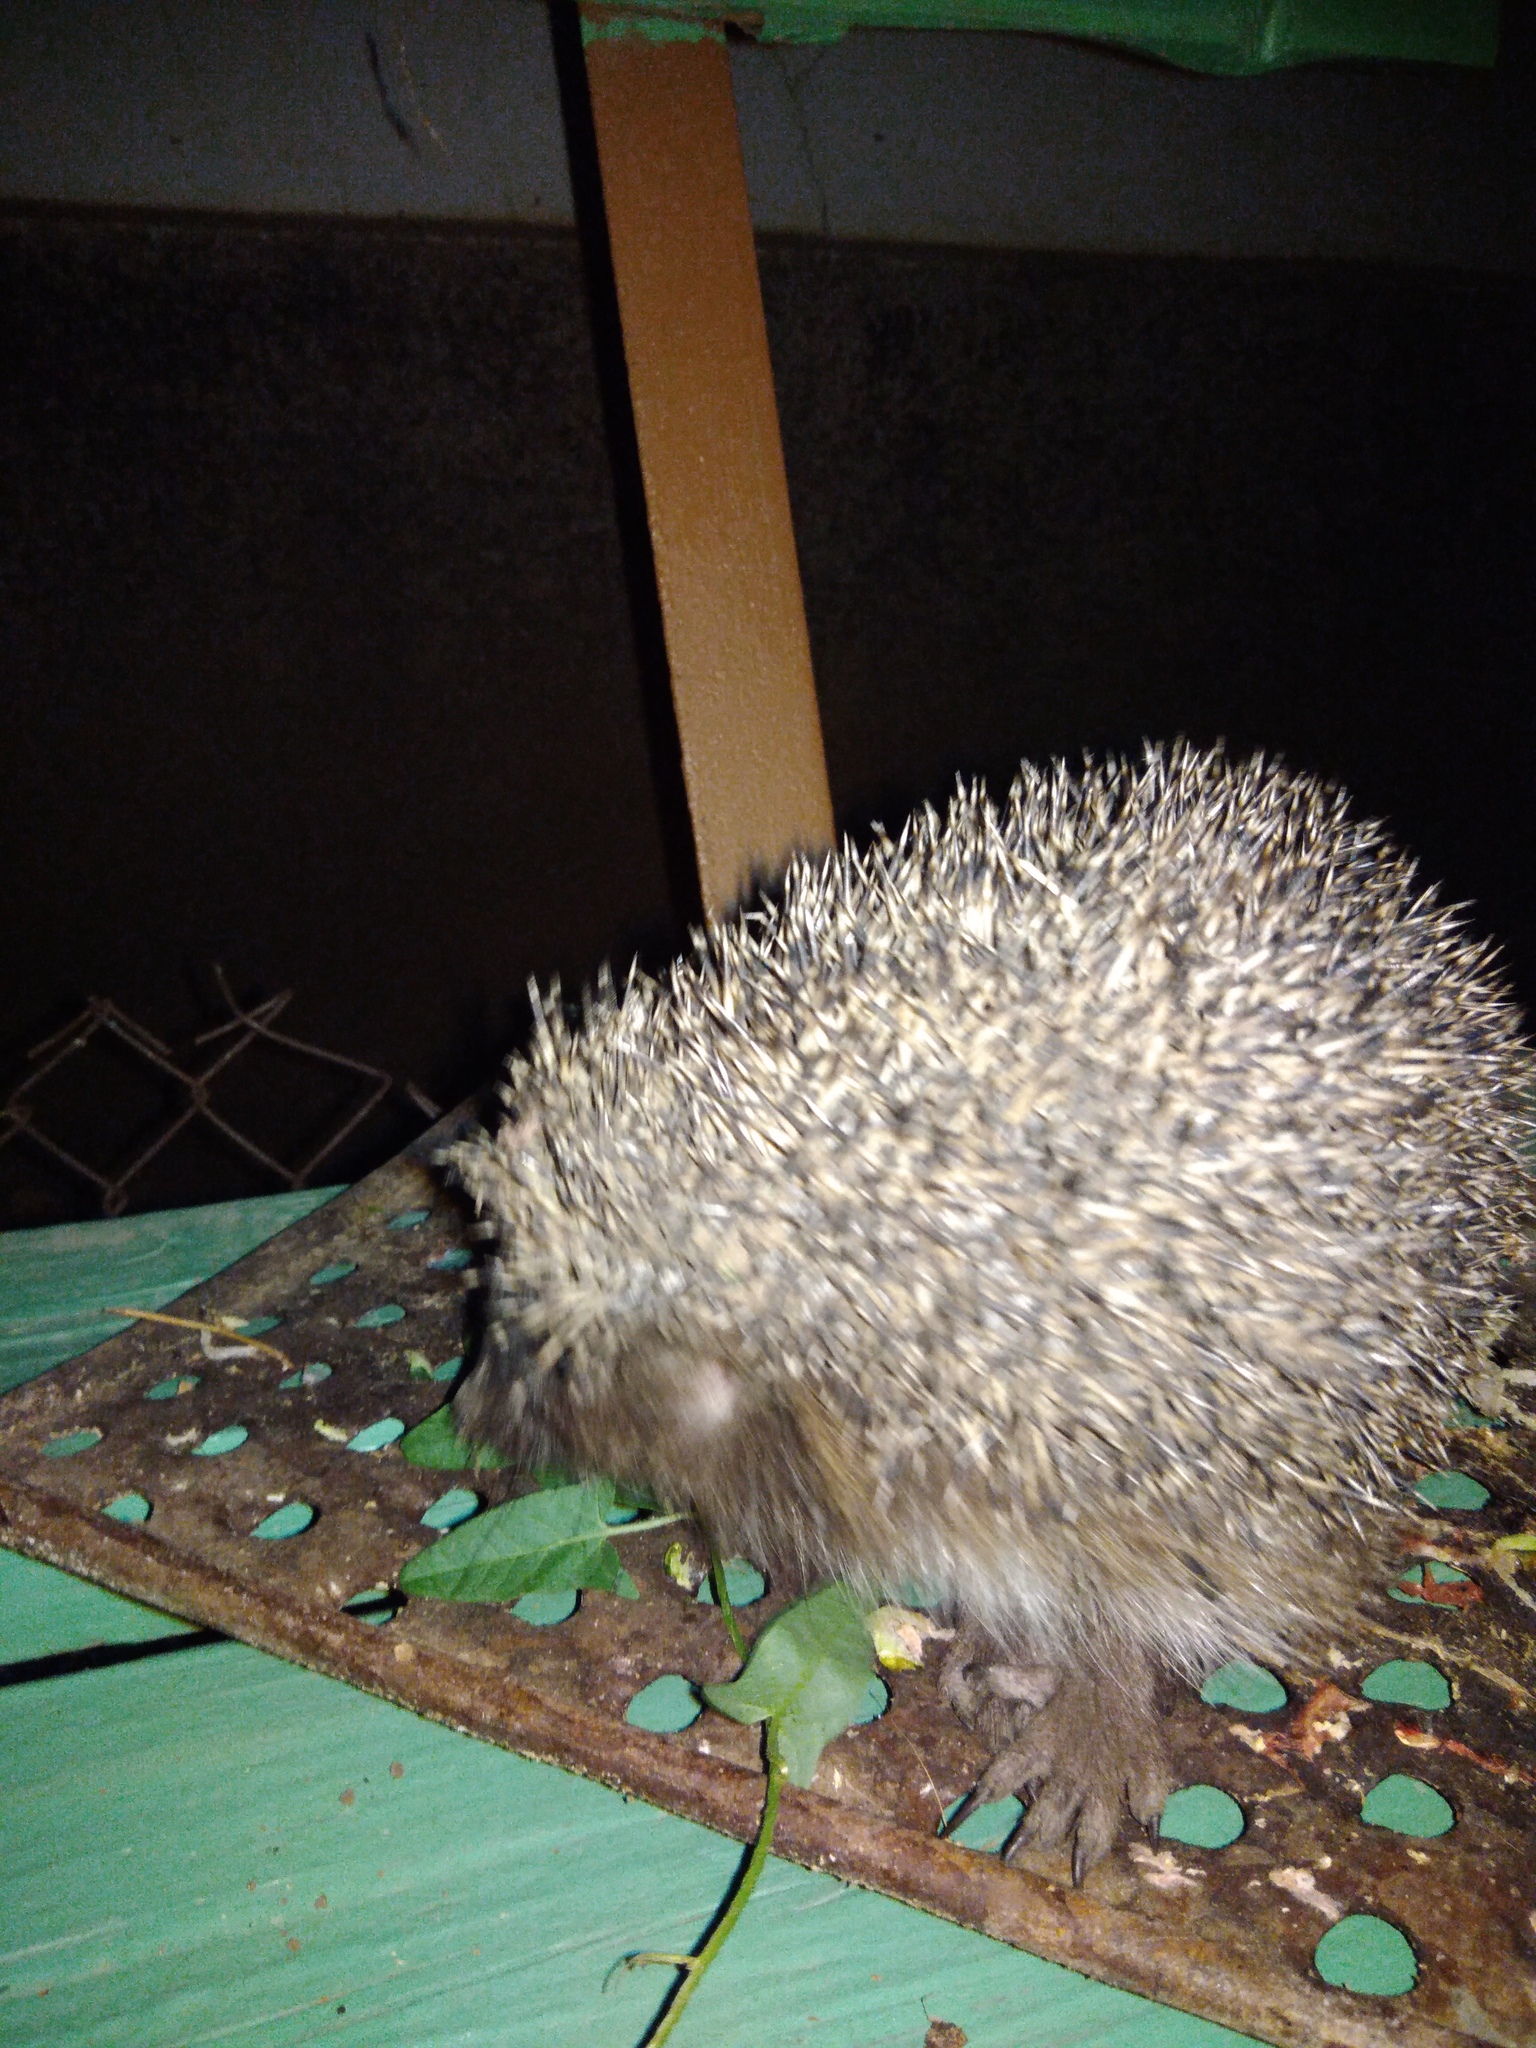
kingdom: Animalia
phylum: Chordata
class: Mammalia
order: Erinaceomorpha
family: Erinaceidae
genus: Erinaceus
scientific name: Erinaceus roumanicus
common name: Northern white-breasted hedgehog
